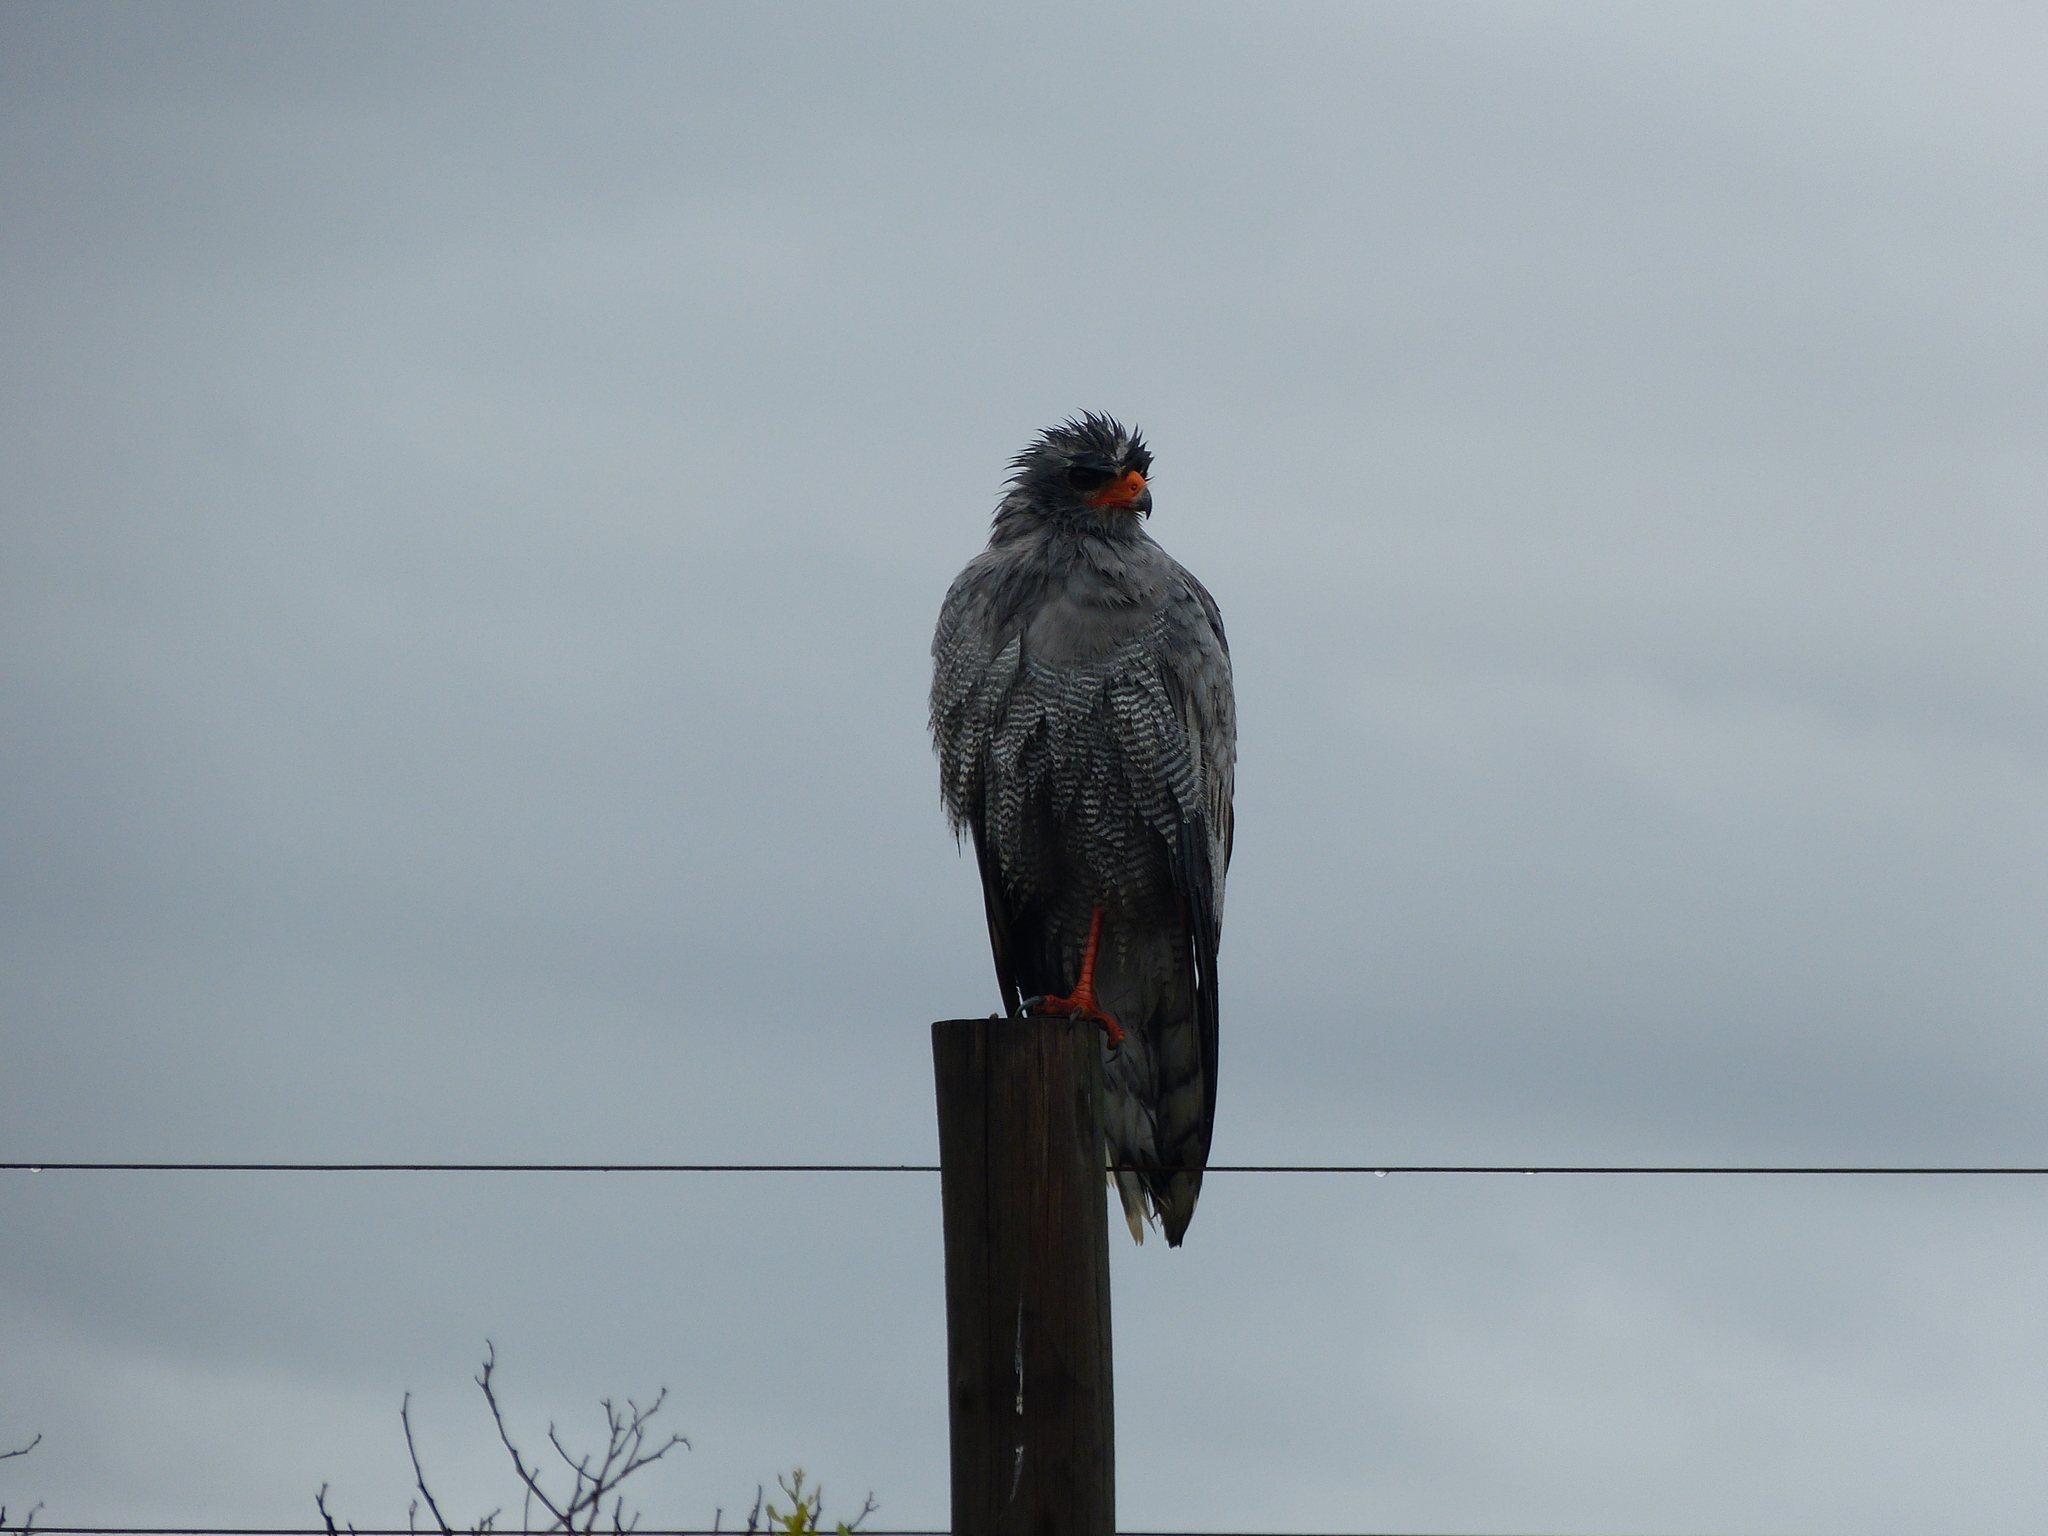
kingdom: Animalia
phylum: Chordata
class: Aves
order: Accipitriformes
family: Accipitridae
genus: Melierax
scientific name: Melierax canorus
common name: Pale chanting-goshawk
